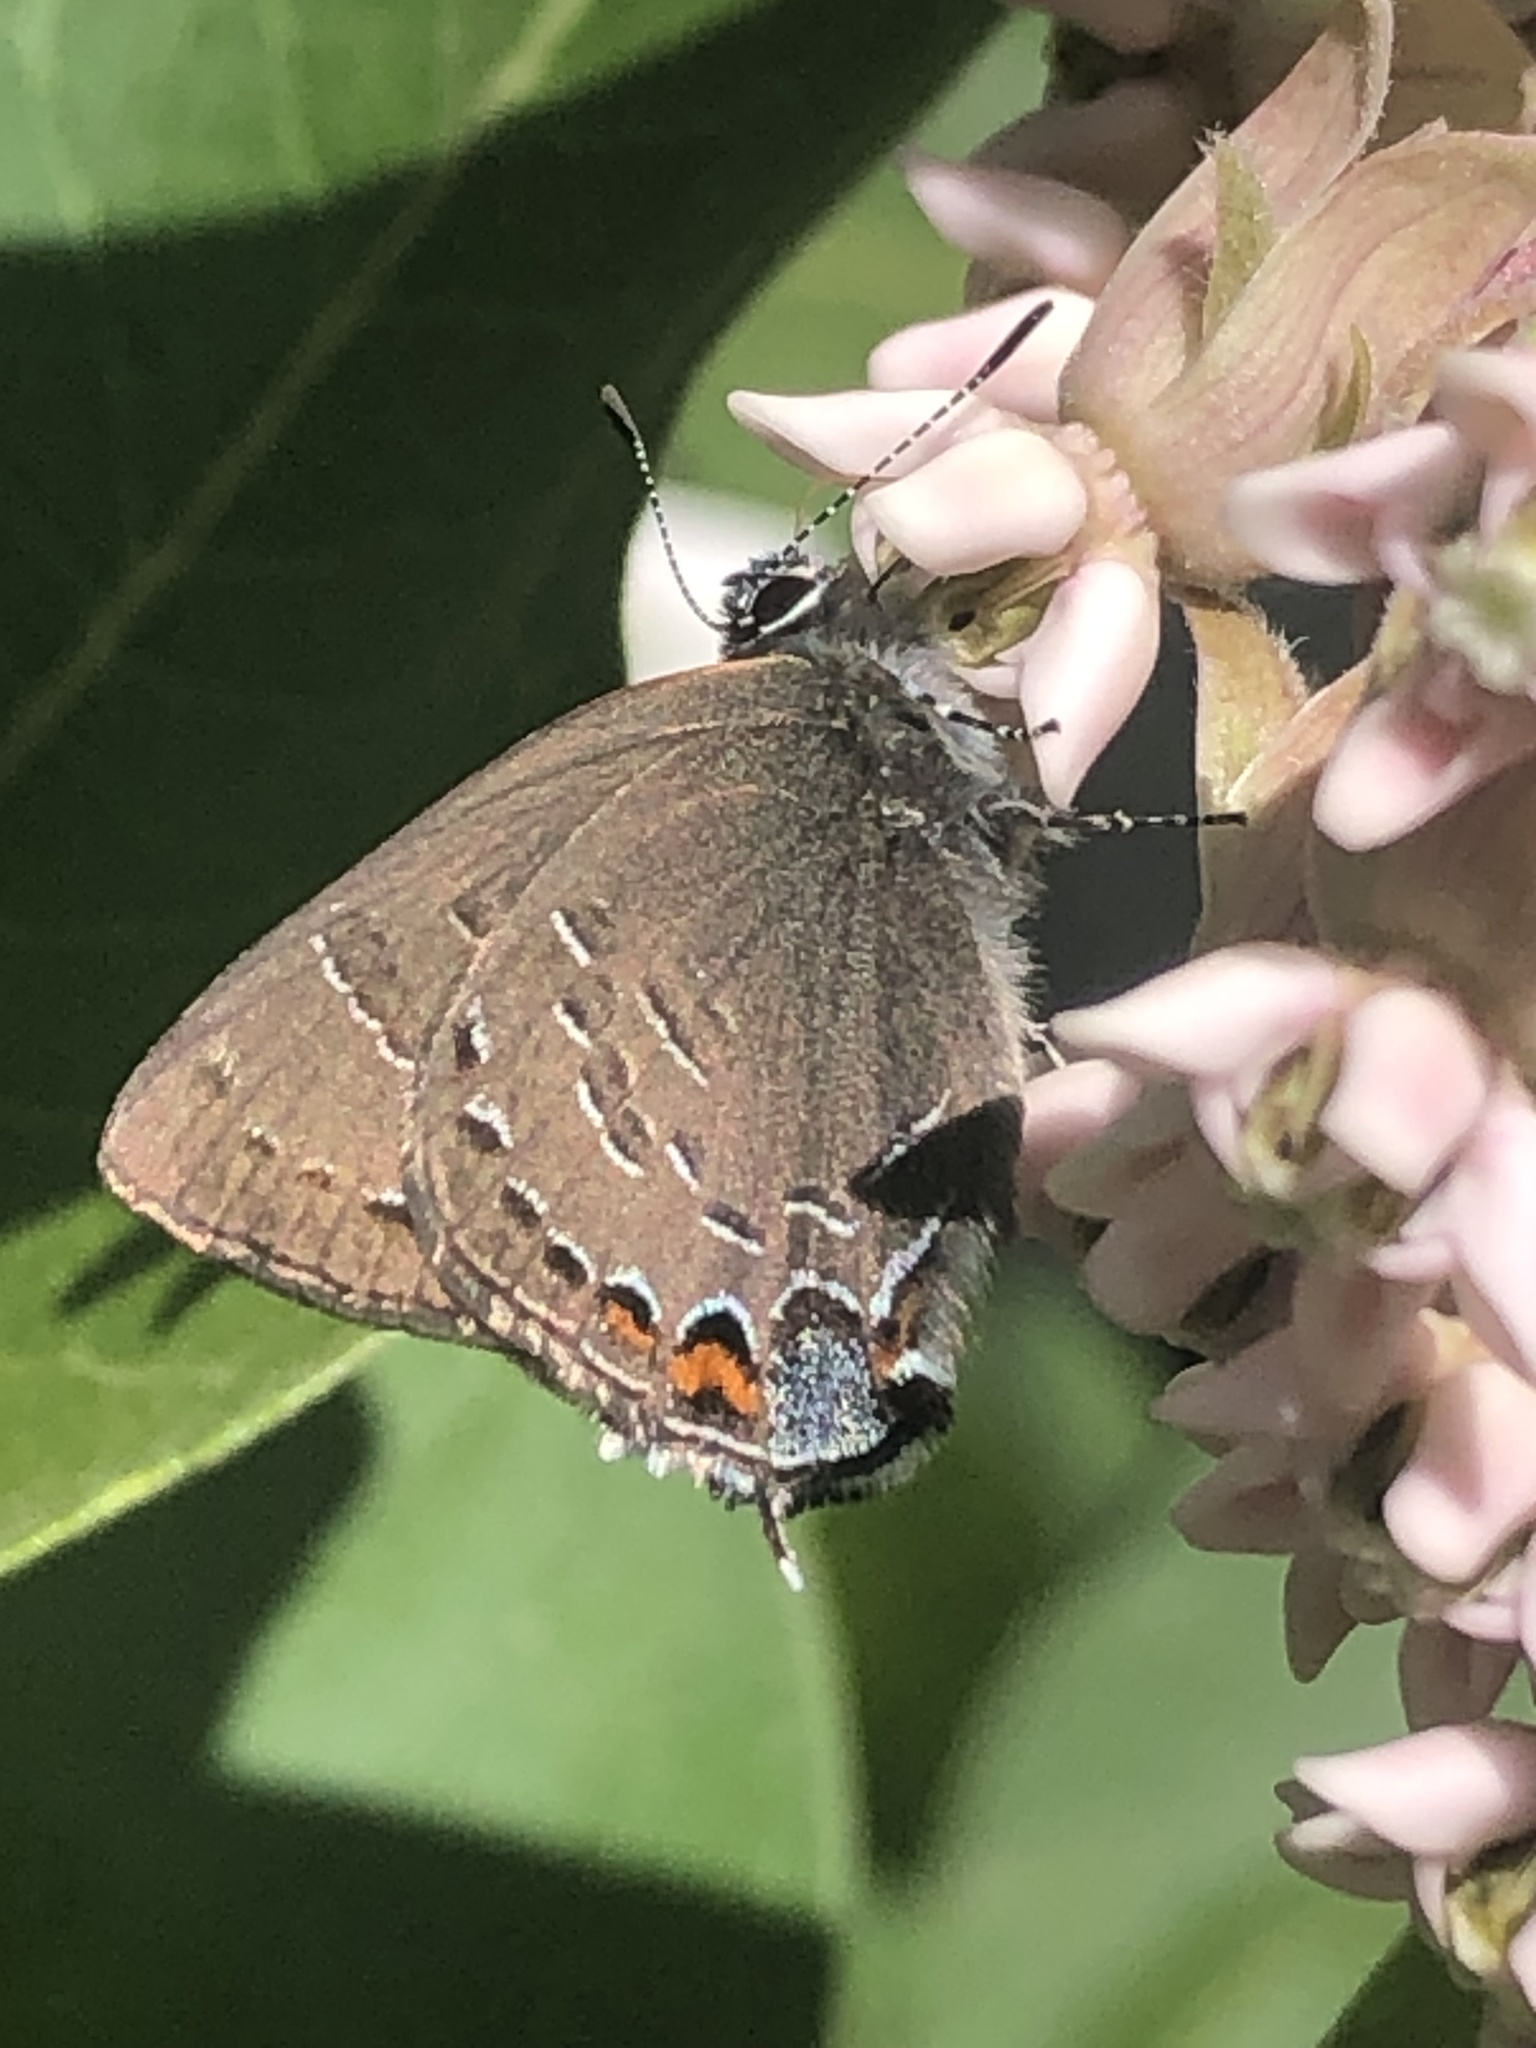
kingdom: Animalia
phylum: Arthropoda
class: Insecta
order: Lepidoptera
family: Lycaenidae
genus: Satyrium
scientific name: Satyrium calanus
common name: Banded hairstreak
